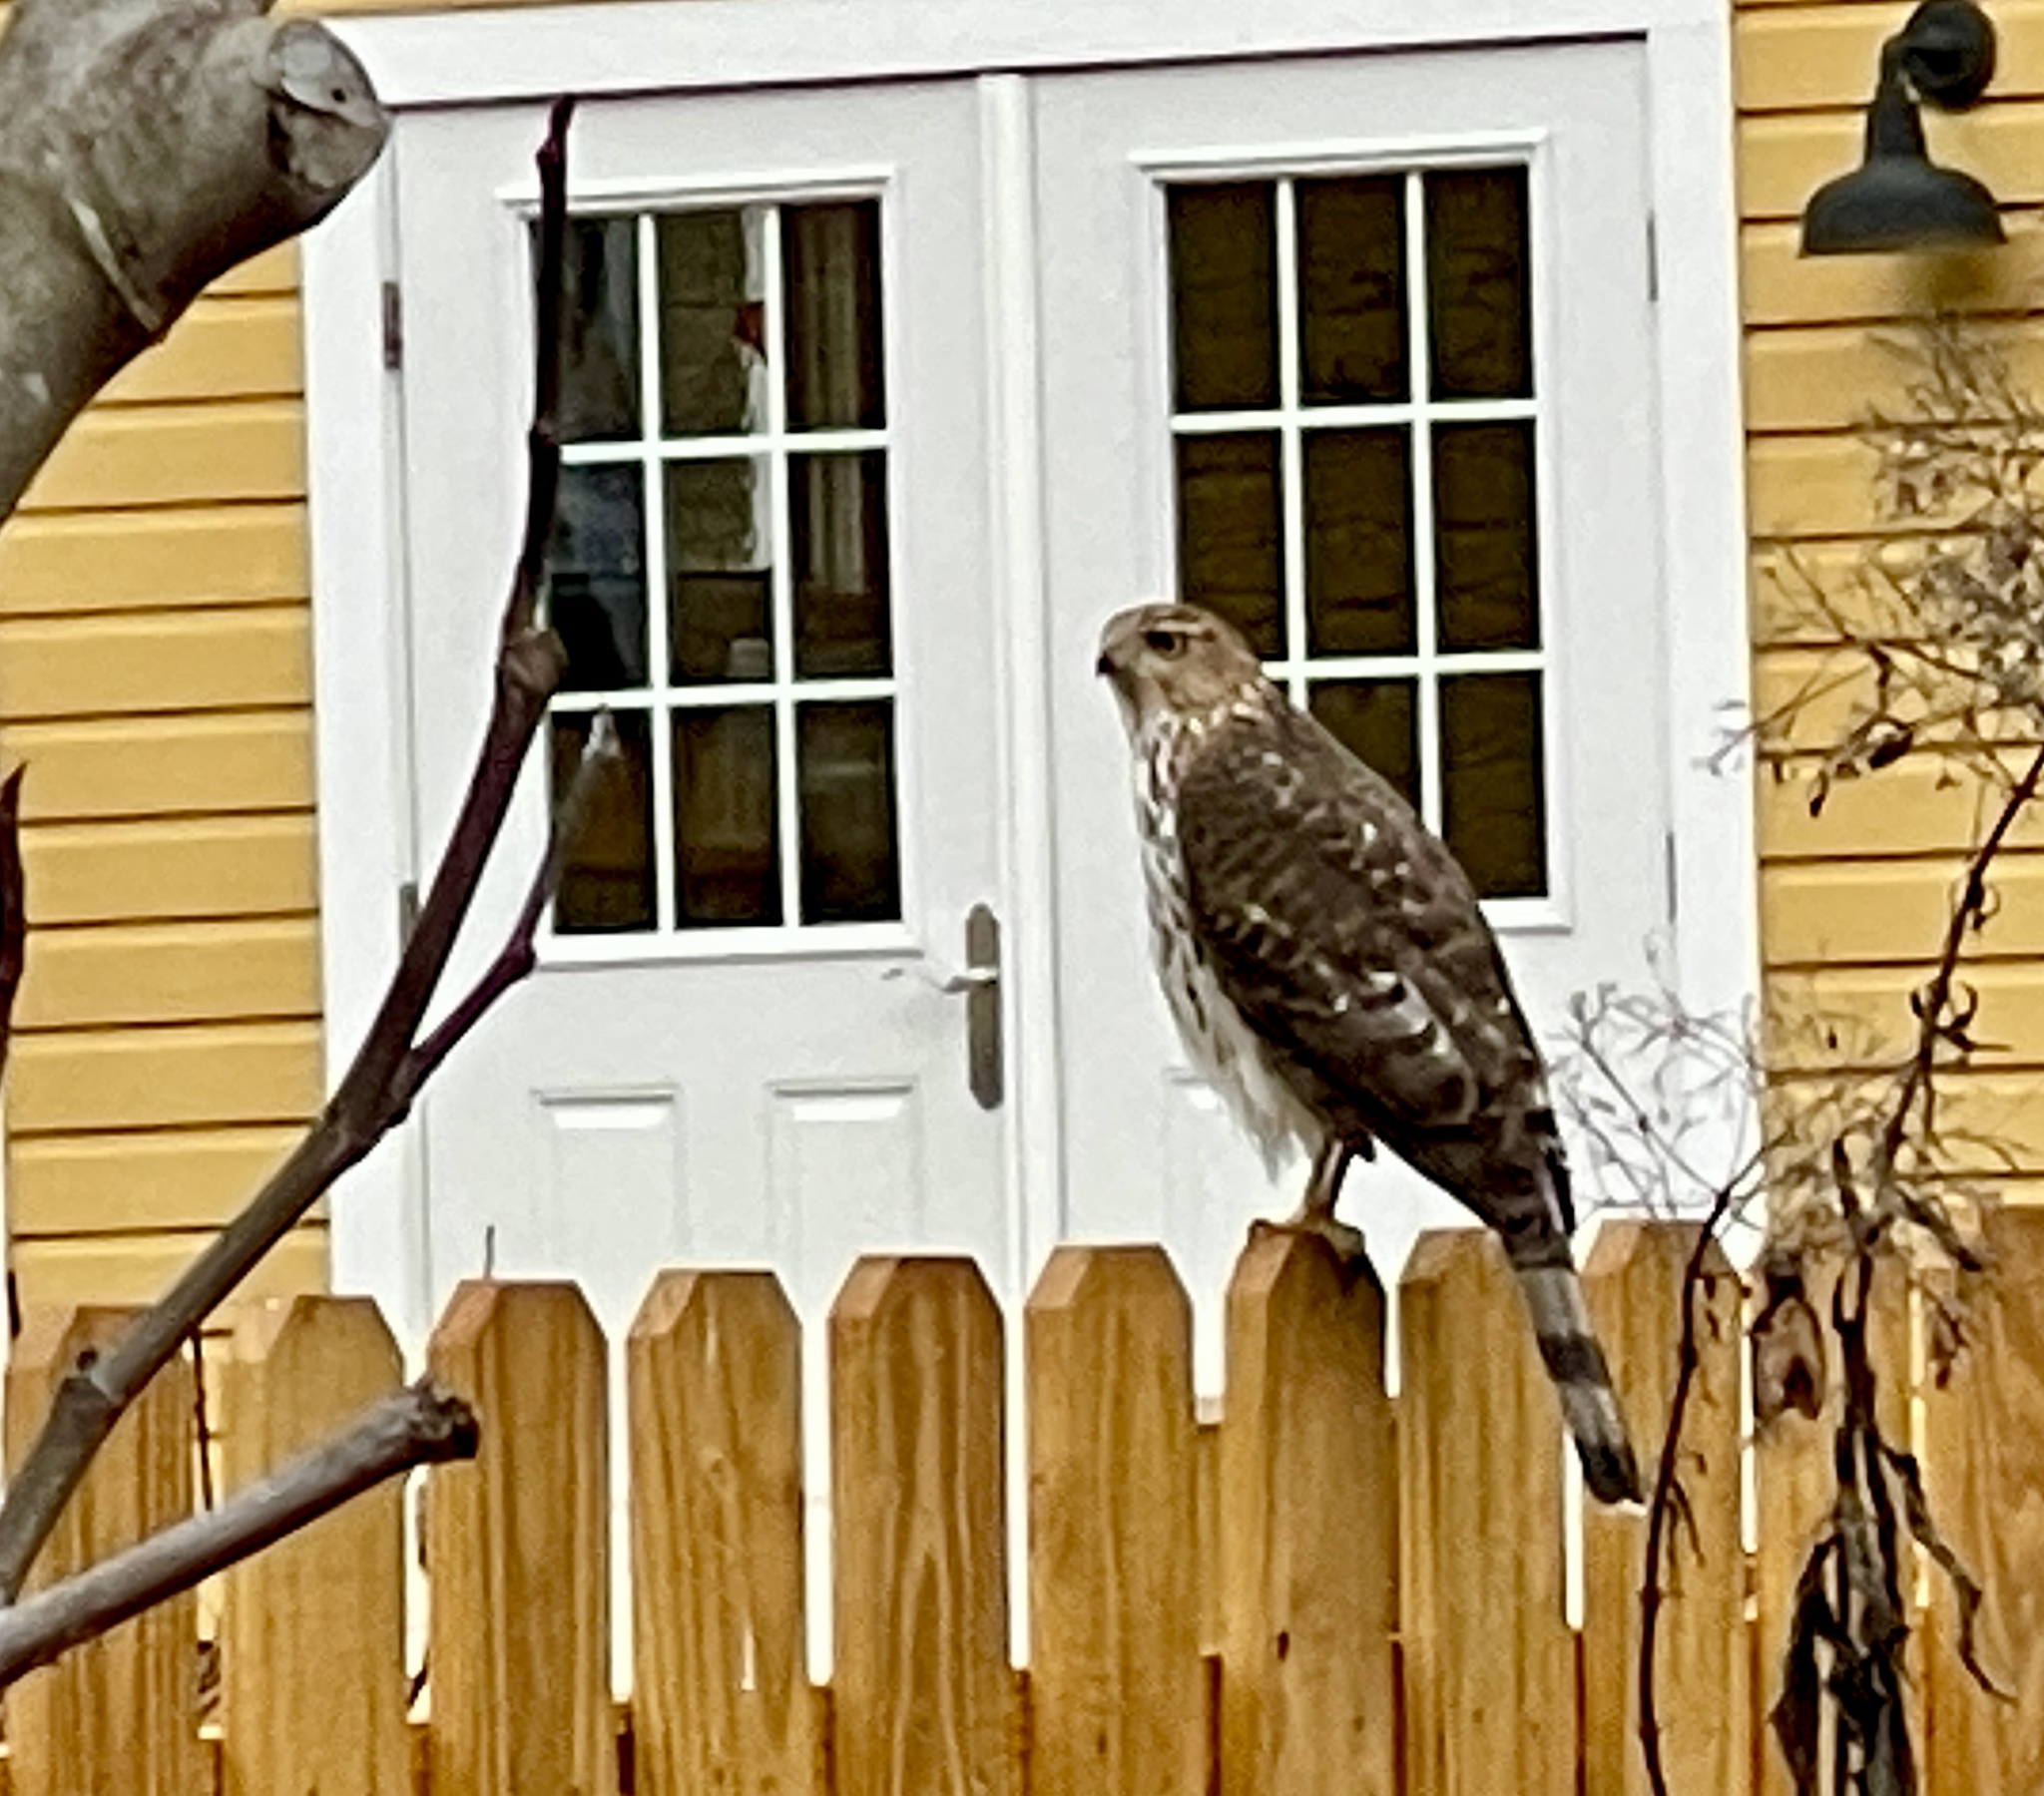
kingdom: Animalia
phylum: Chordata
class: Aves
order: Accipitriformes
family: Accipitridae
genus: Accipiter
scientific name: Accipiter cooperii
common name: Cooper's hawk
